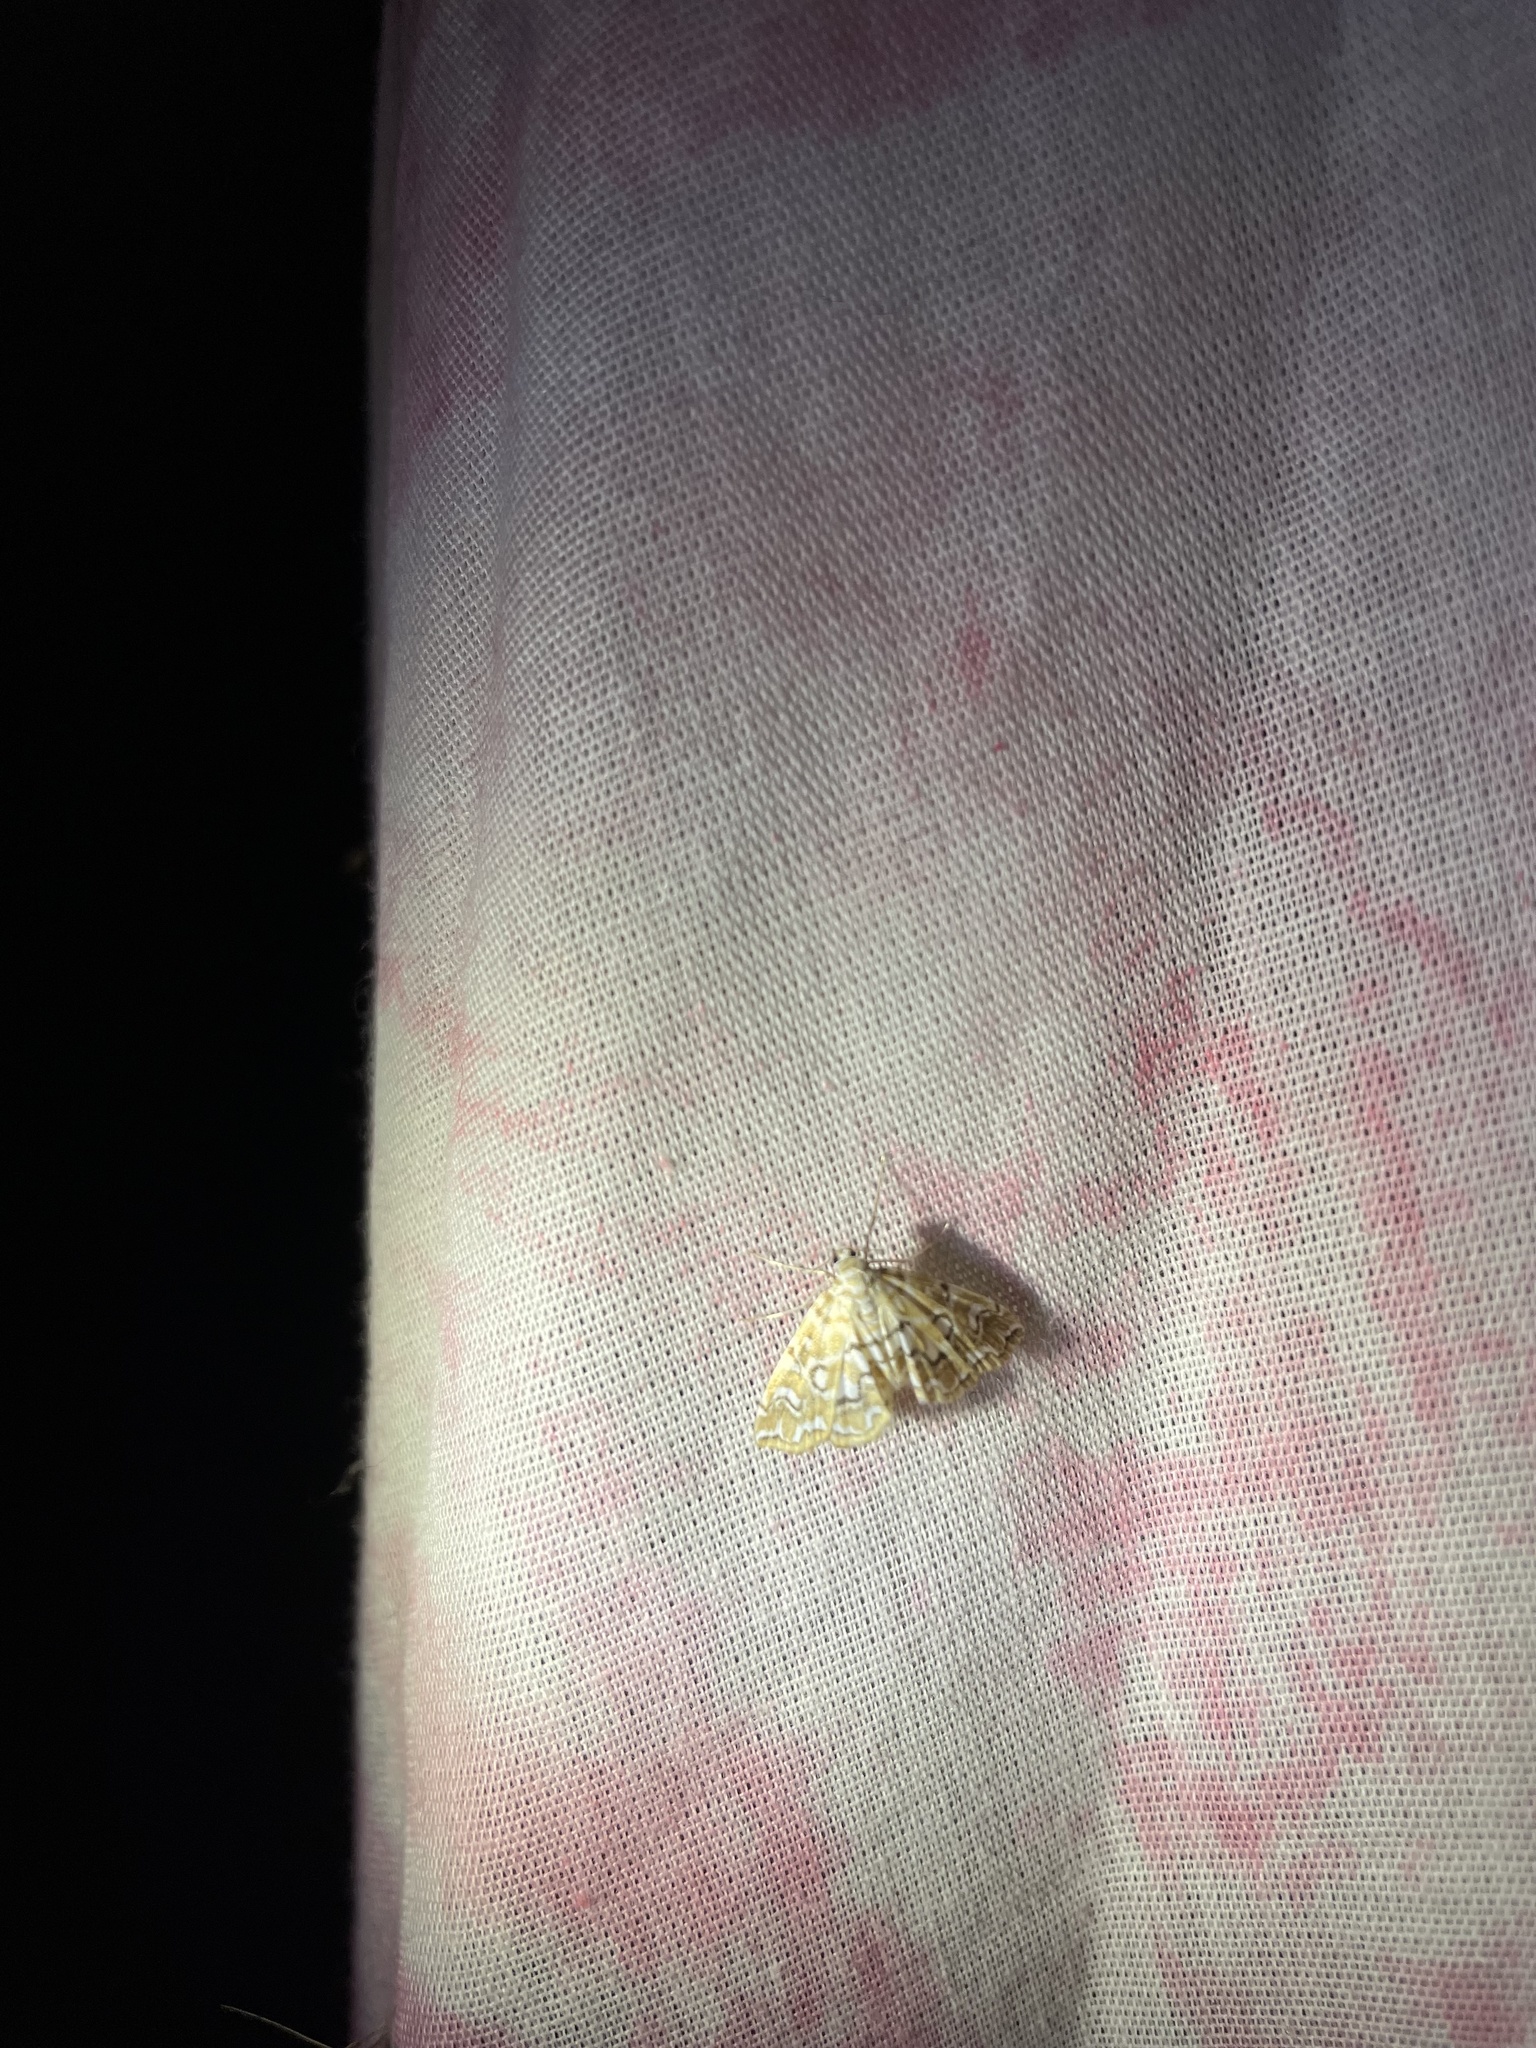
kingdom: Animalia
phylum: Arthropoda
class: Insecta
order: Lepidoptera
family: Crambidae
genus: Elophila
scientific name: Elophila icciusalis
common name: Pondside pyralid moth
